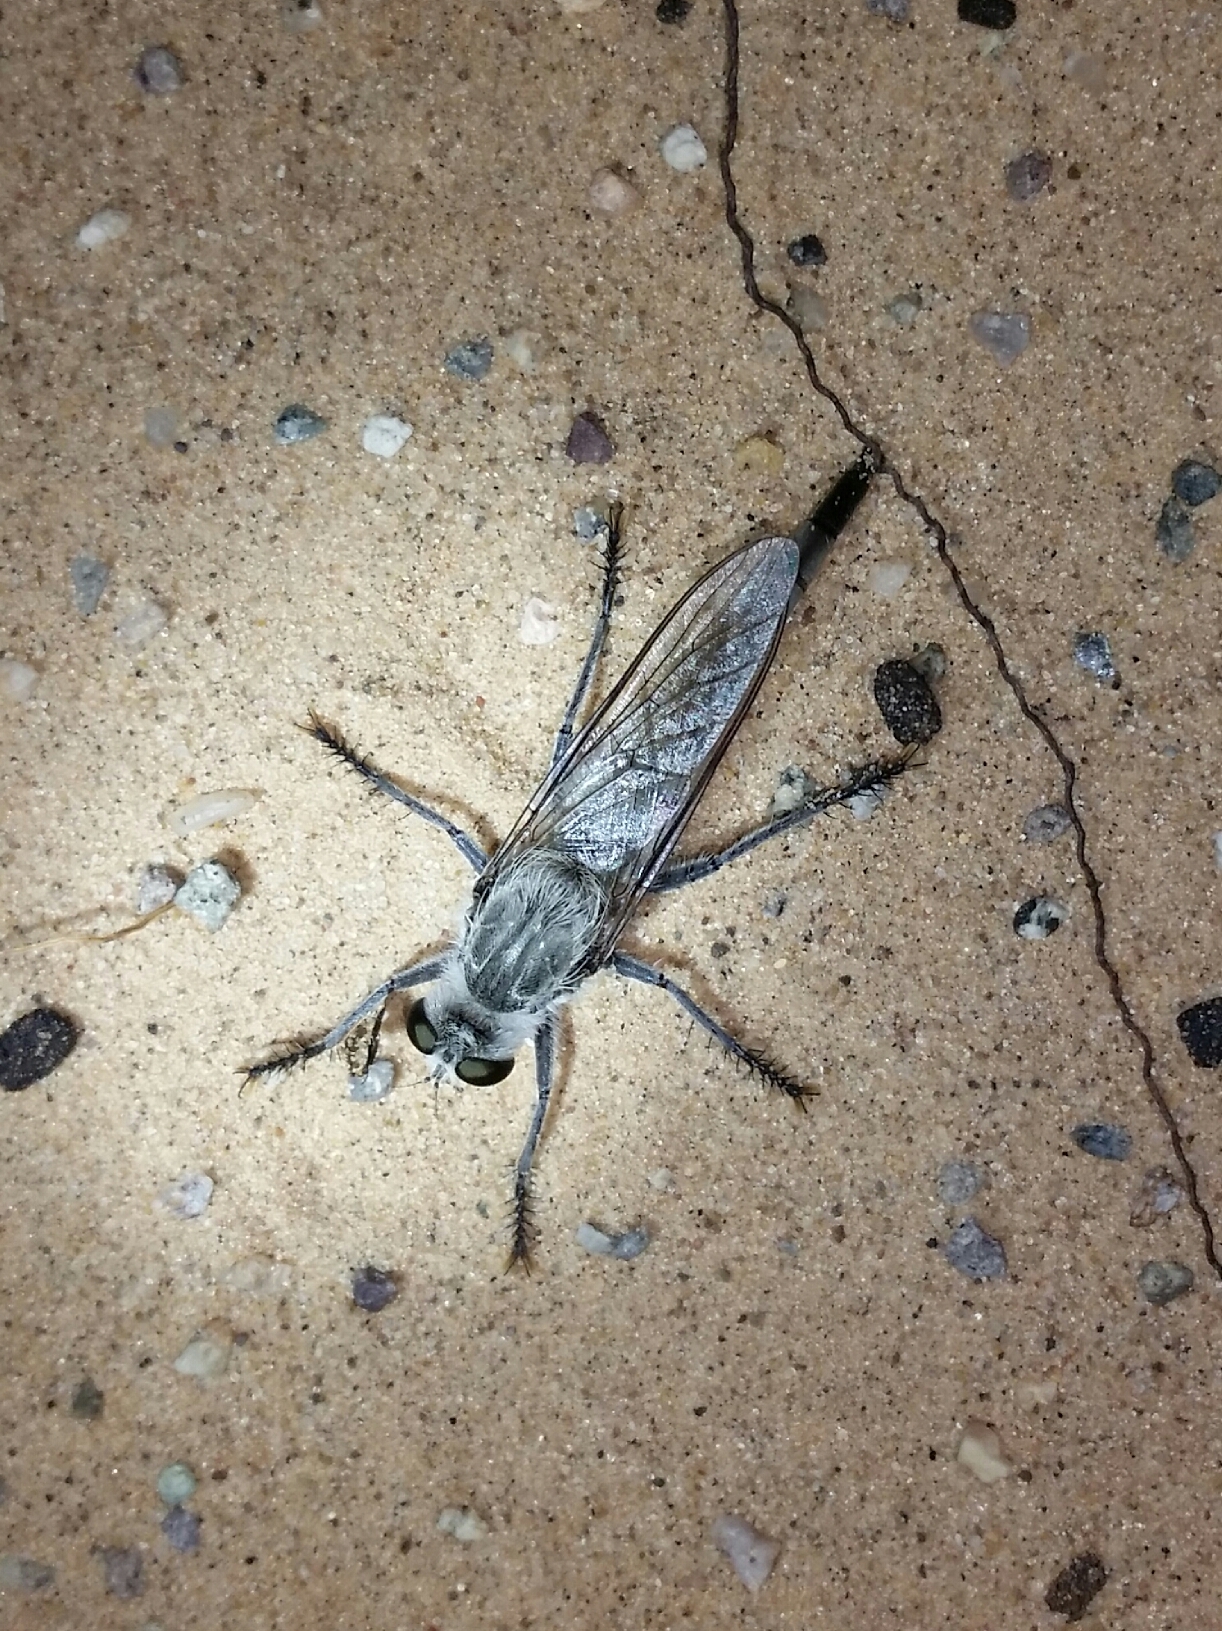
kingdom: Animalia
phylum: Arthropoda
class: Insecta
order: Diptera
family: Asilidae
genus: Proctacanthus
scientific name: Proctacanthus coquillettii
